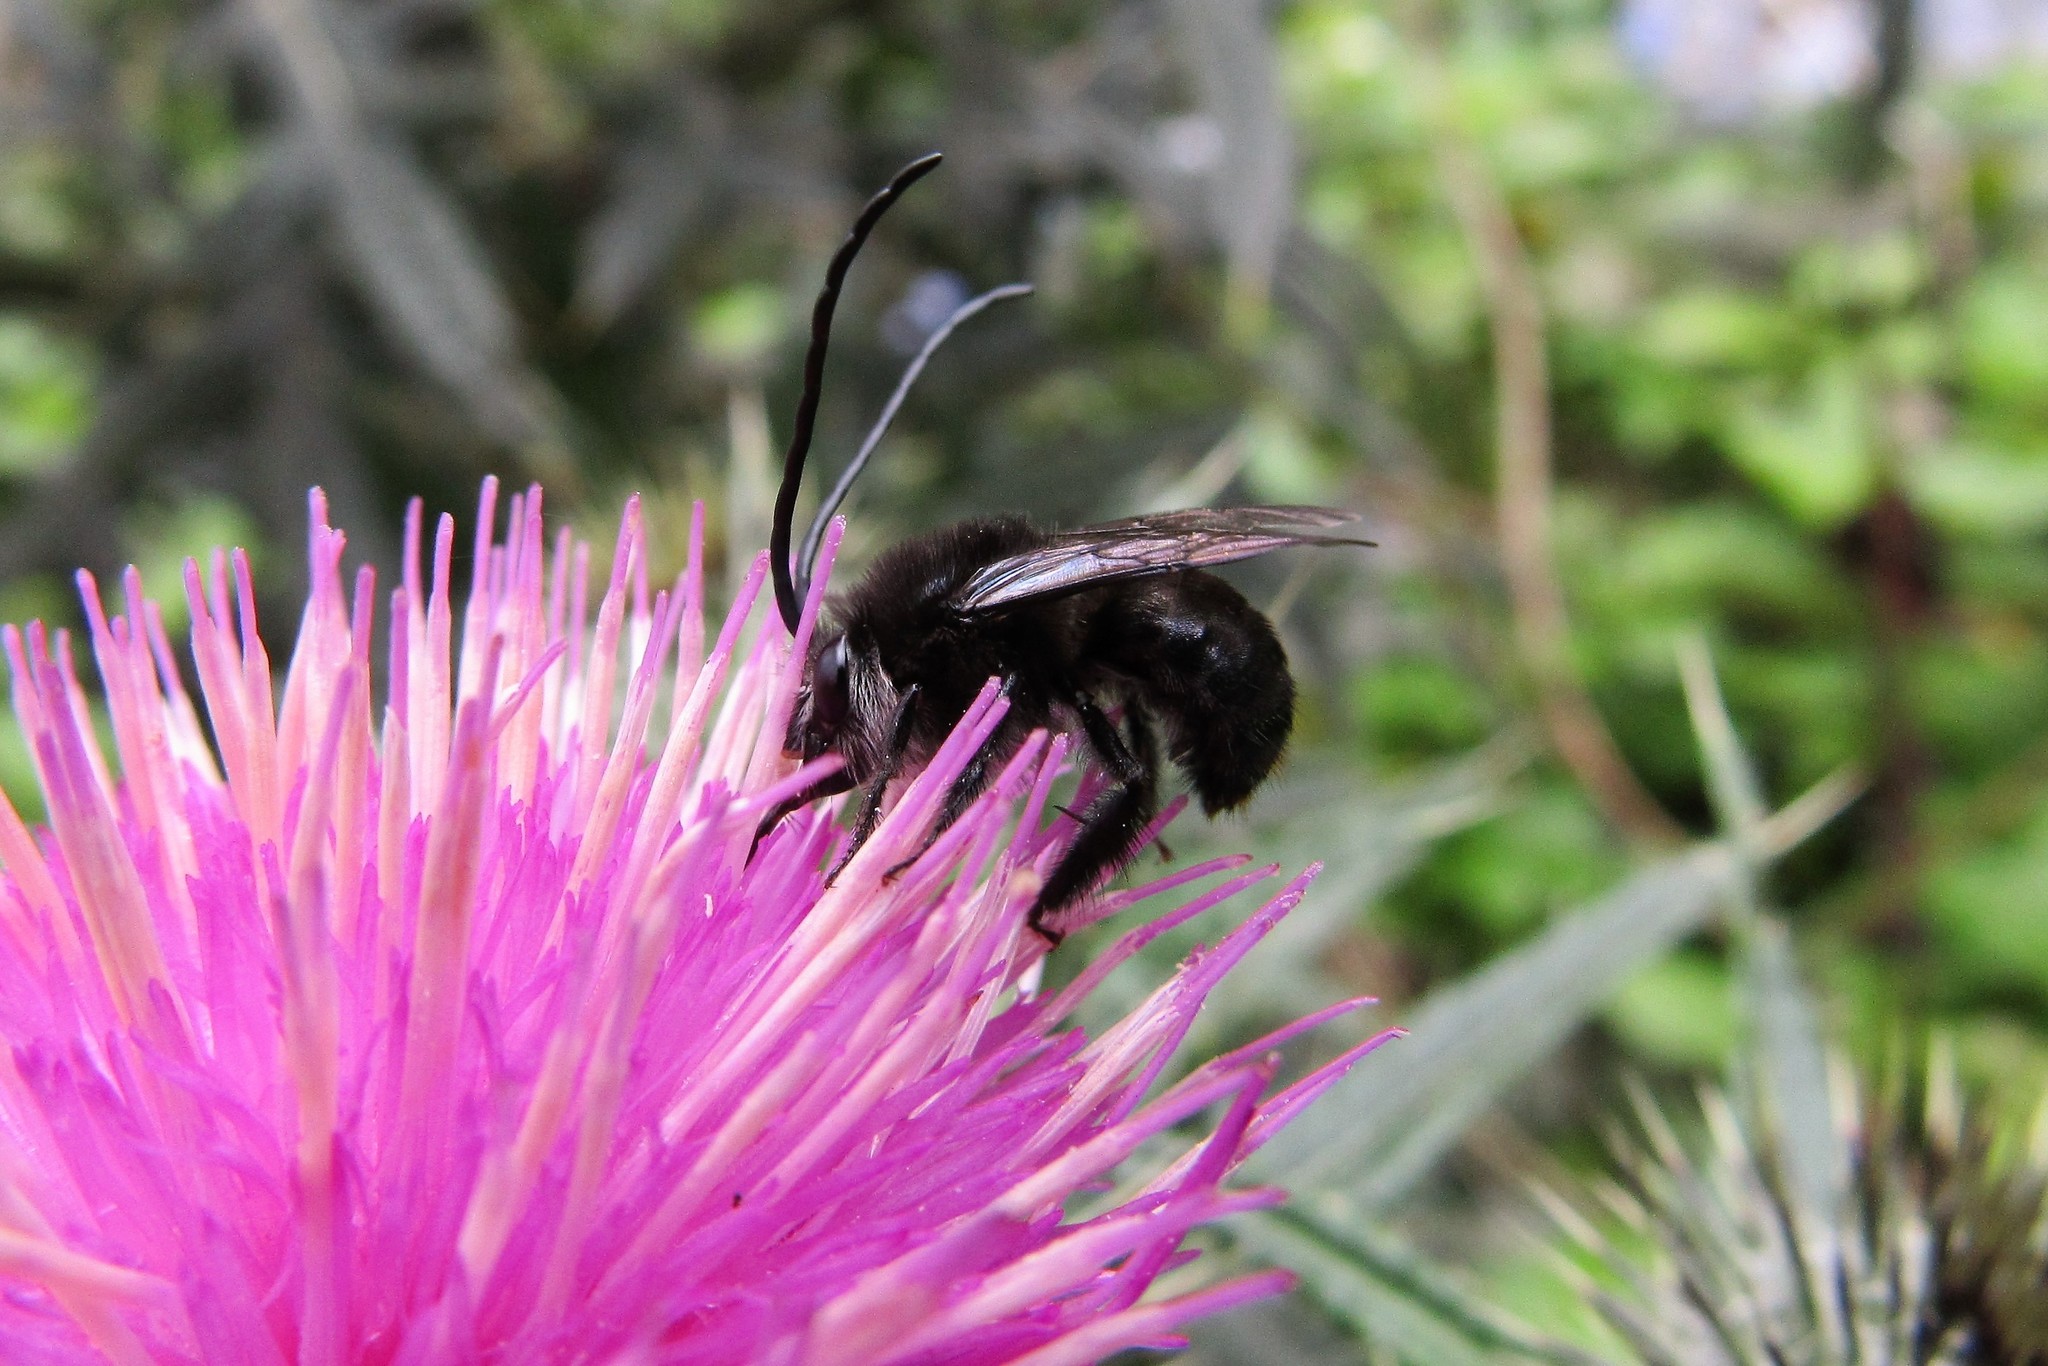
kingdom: Animalia
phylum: Arthropoda
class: Insecta
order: Hymenoptera
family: Apidae
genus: Thygater
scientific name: Thygater aethiops
